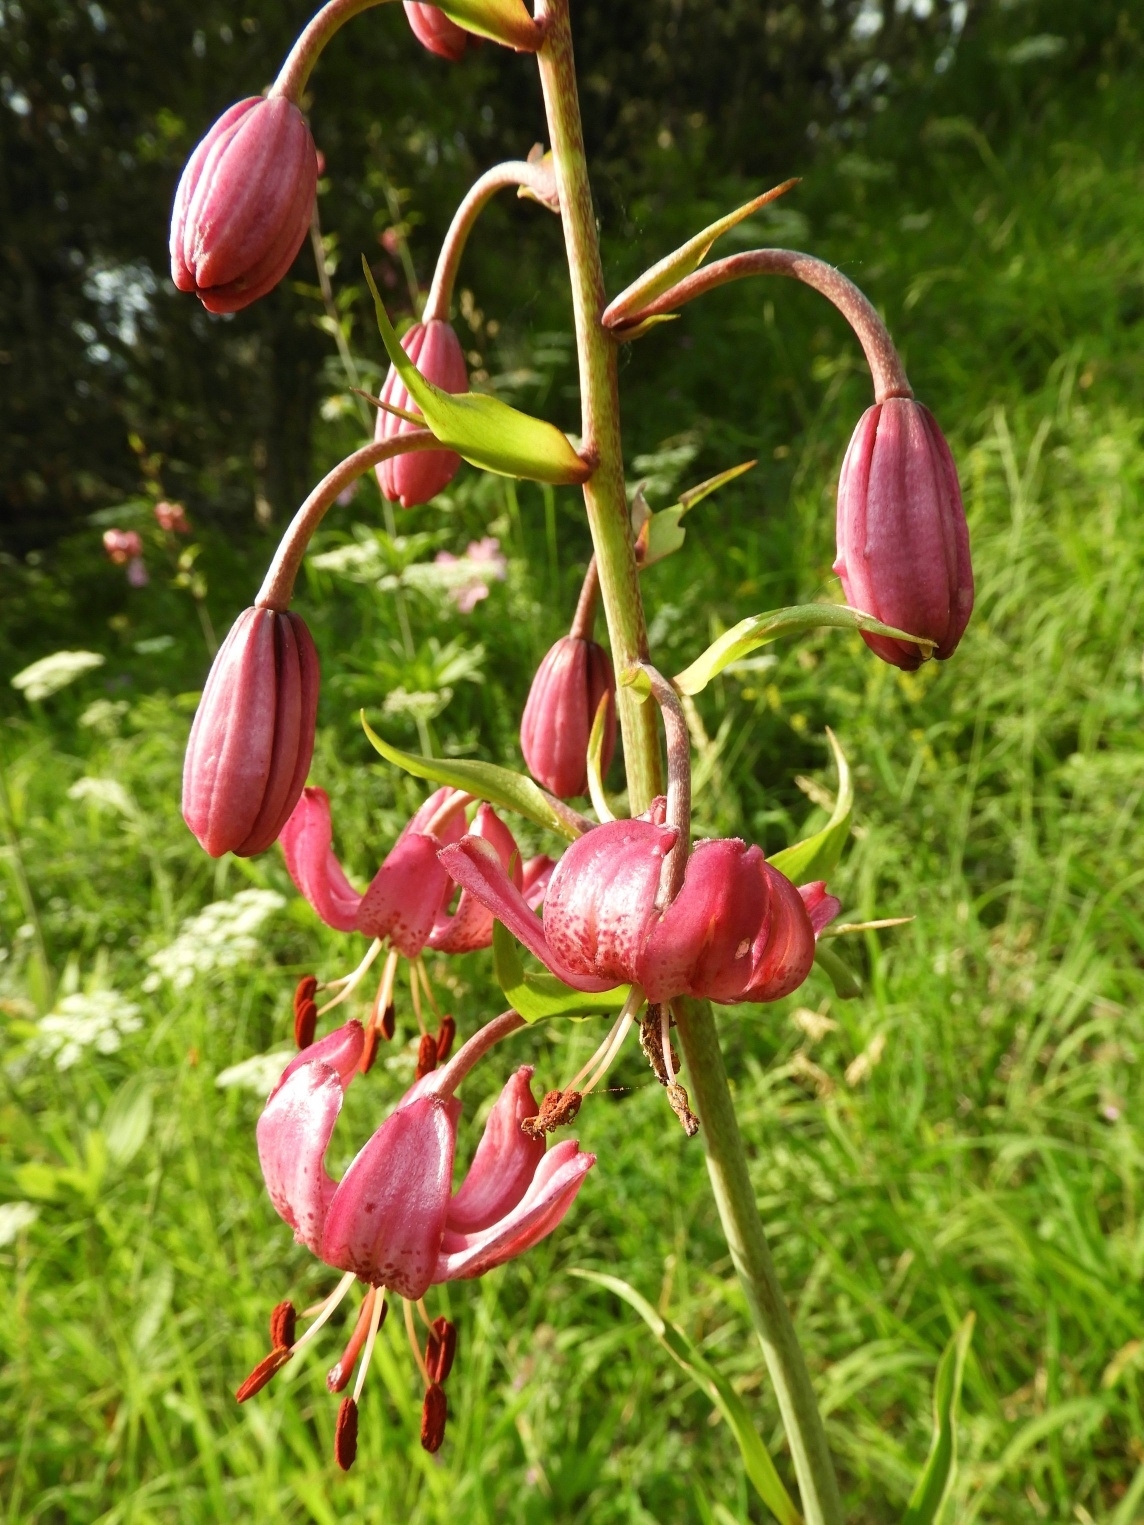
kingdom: Plantae
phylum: Tracheophyta
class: Liliopsida
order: Liliales
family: Liliaceae
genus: Lilium
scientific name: Lilium martagon
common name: Martagon lily
